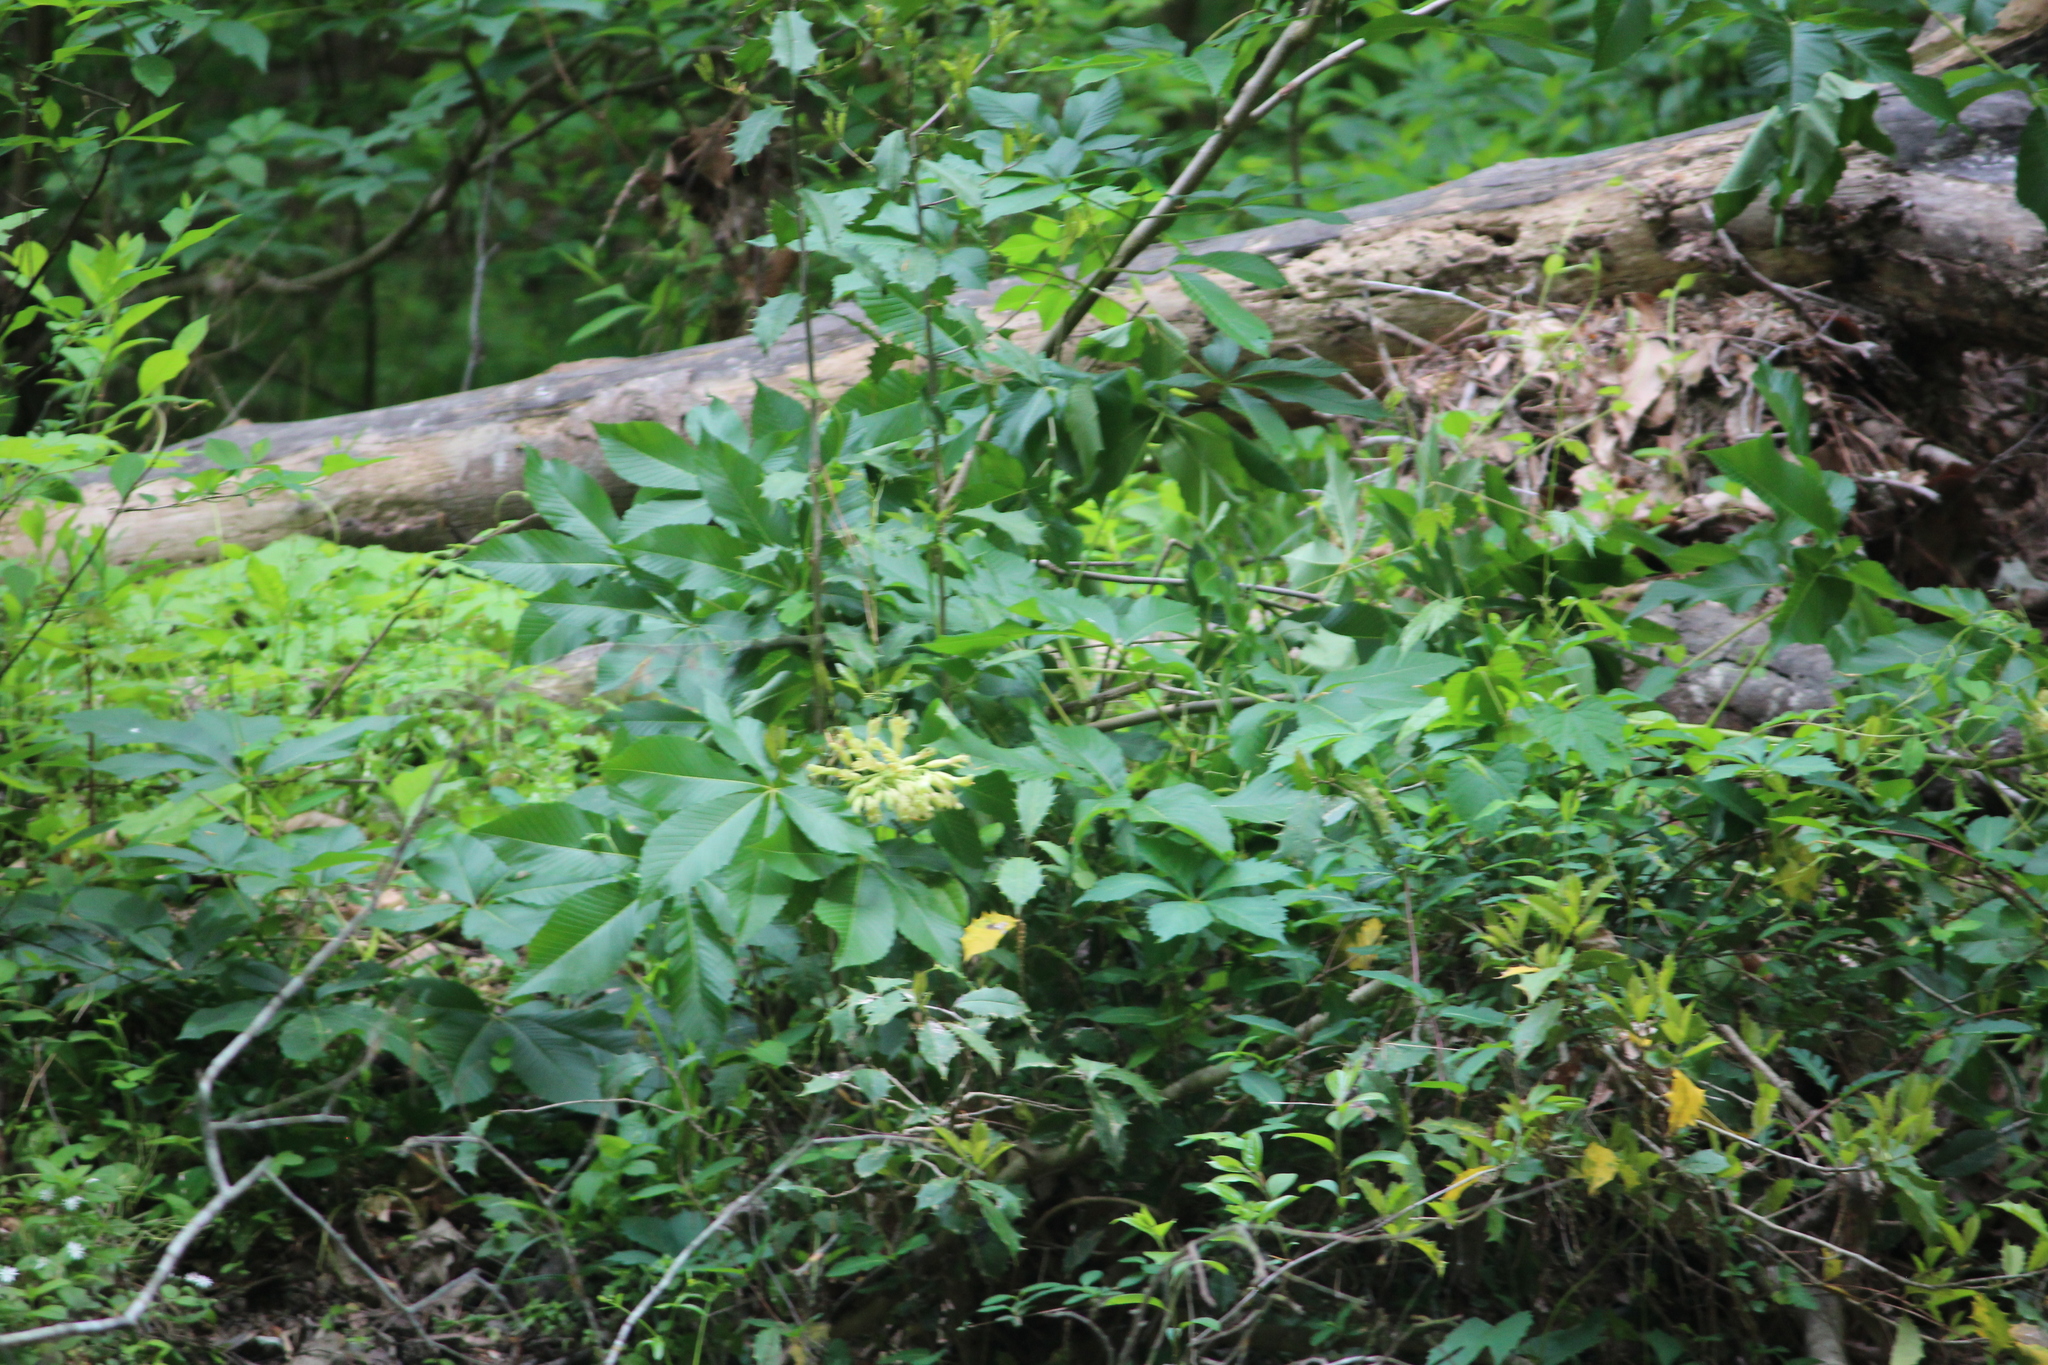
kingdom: Plantae
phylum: Tracheophyta
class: Magnoliopsida
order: Sapindales
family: Sapindaceae
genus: Aesculus
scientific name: Aesculus sylvatica
